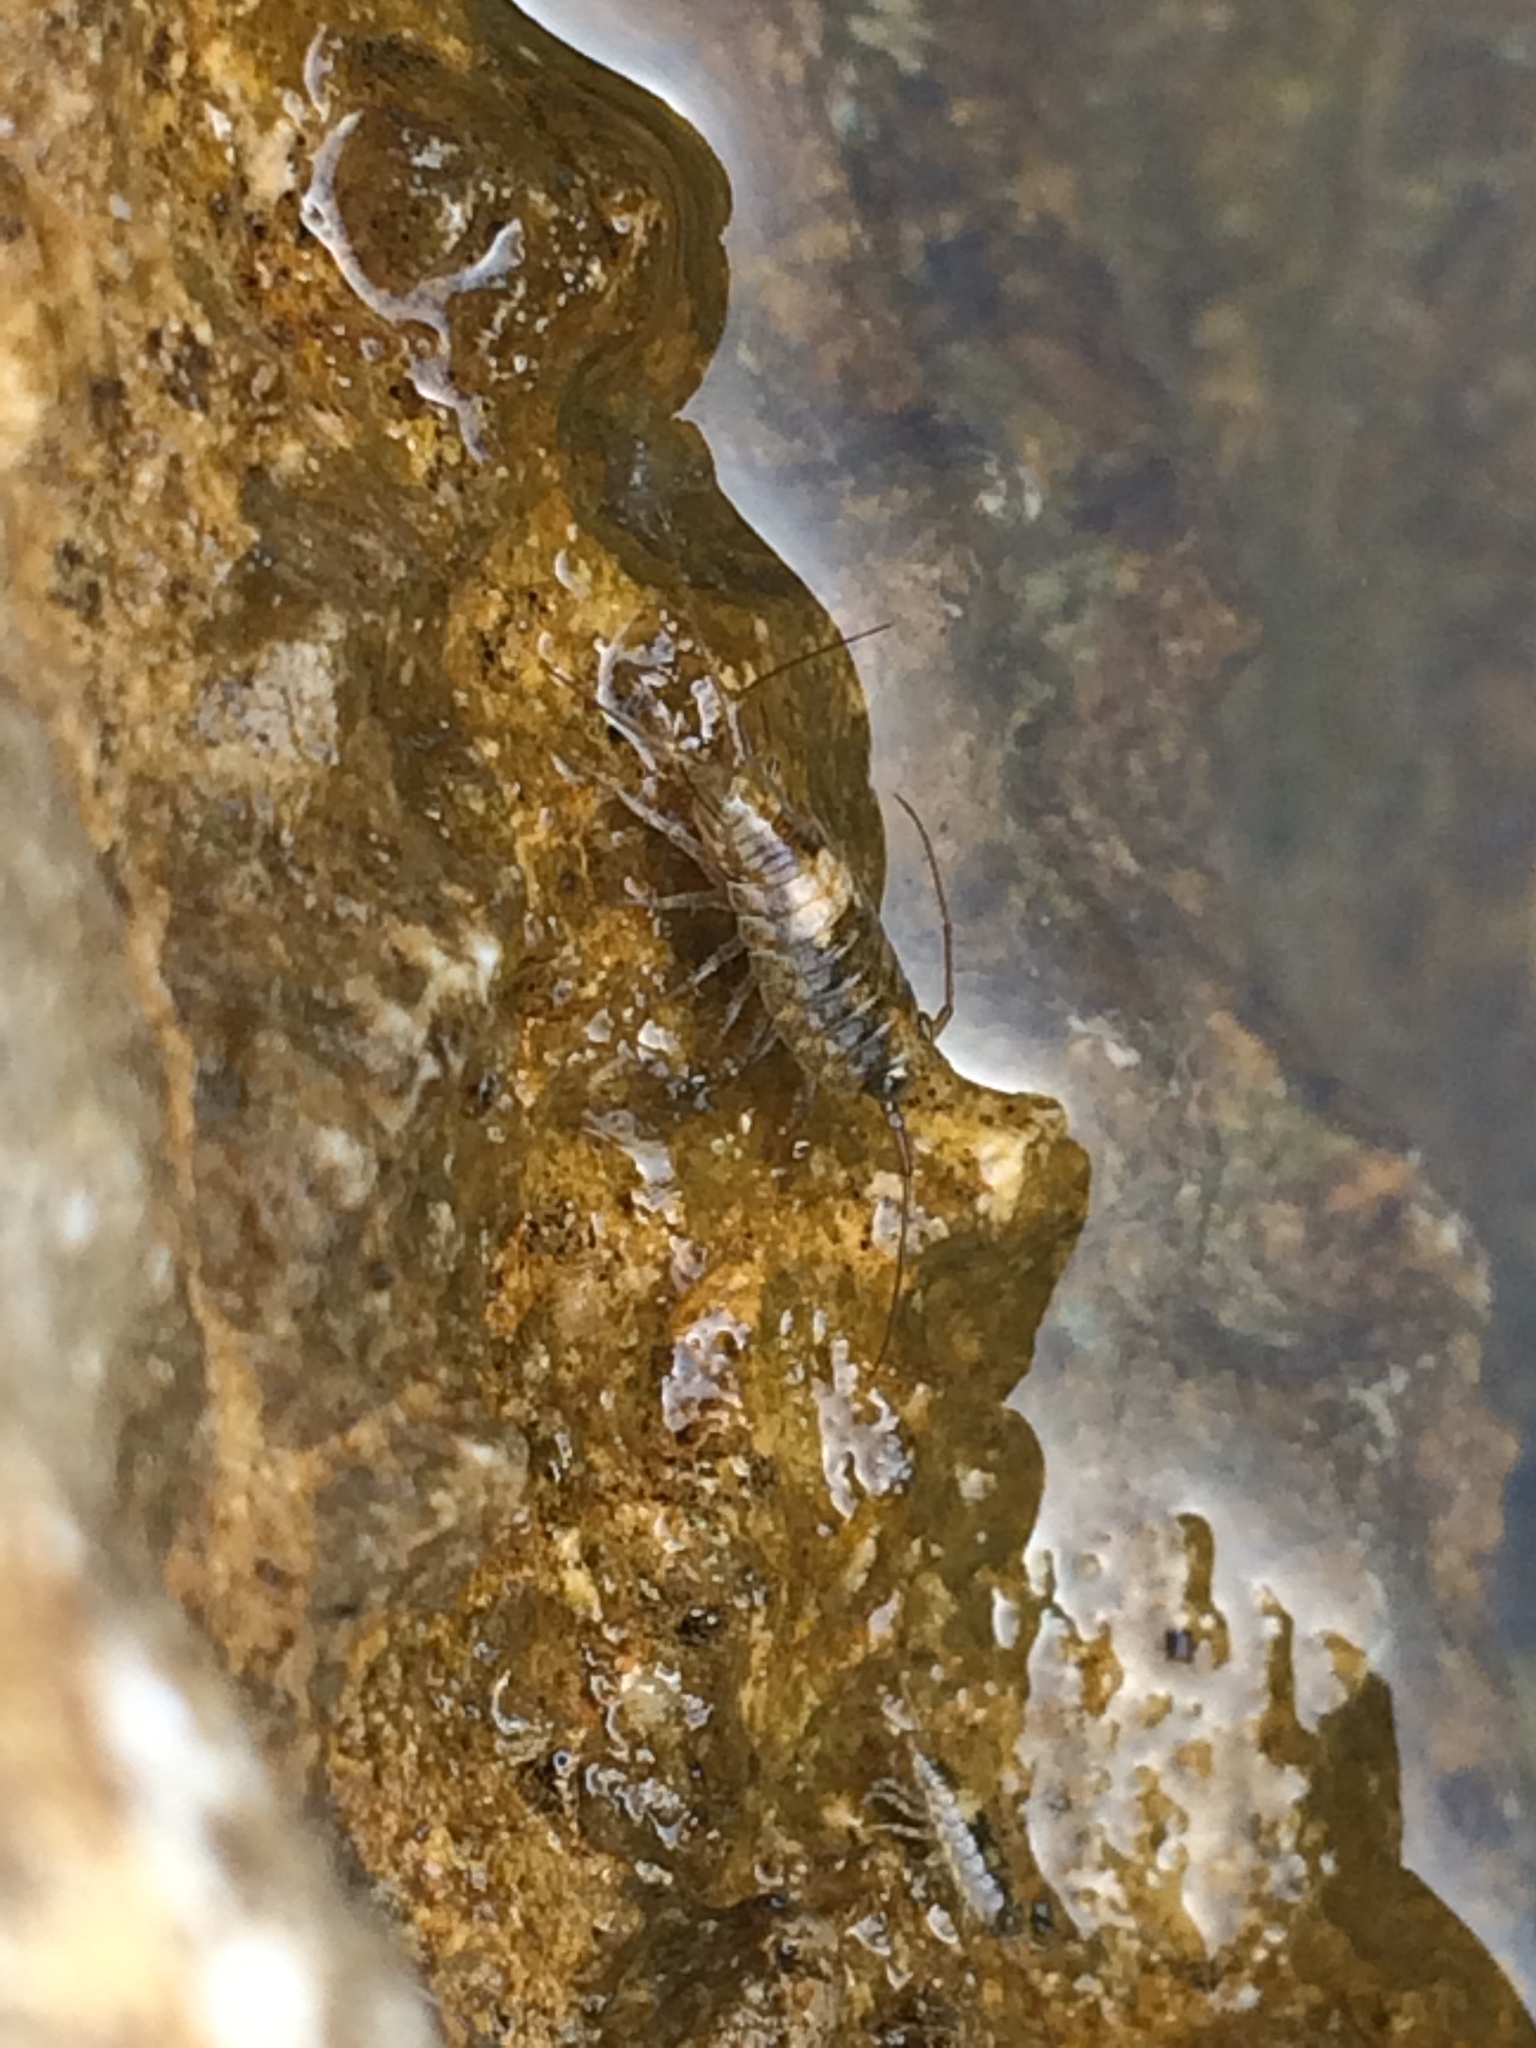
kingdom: Animalia
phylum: Arthropoda
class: Malacostraca
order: Isopoda
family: Ligiidae
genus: Ligia
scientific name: Ligia italica
